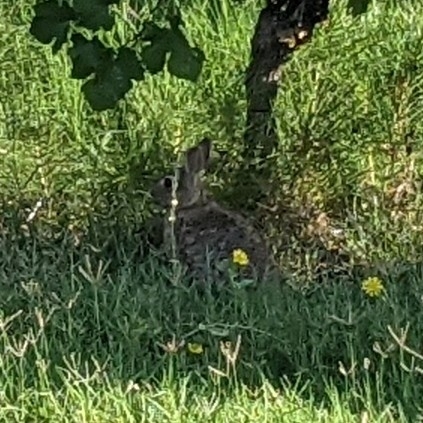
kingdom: Animalia
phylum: Chordata
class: Mammalia
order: Lagomorpha
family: Leporidae
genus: Sylvilagus
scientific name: Sylvilagus floridanus
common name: Eastern cottontail
